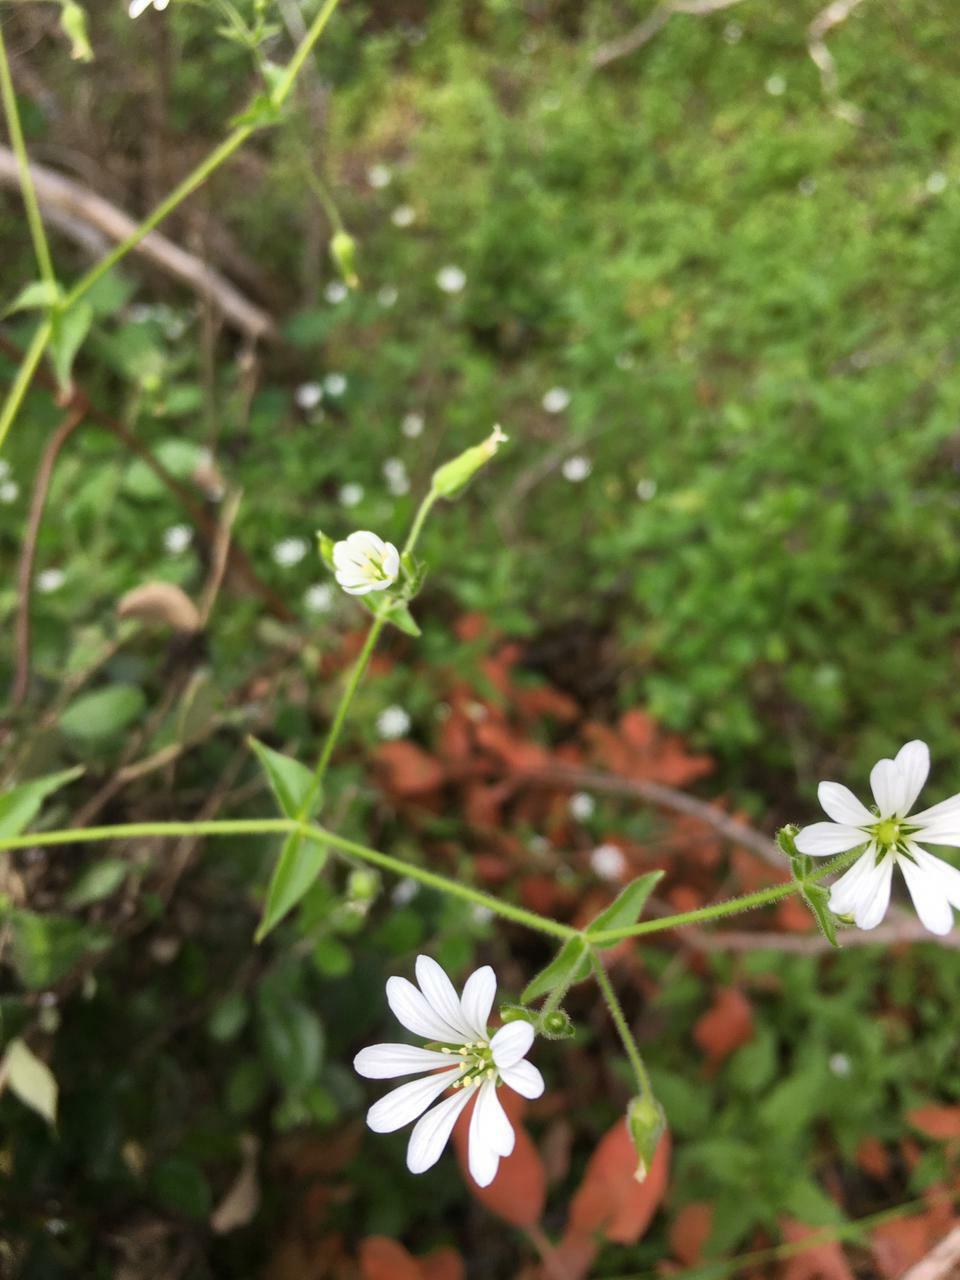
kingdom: Plantae
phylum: Tracheophyta
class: Magnoliopsida
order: Caryophyllales
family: Caryophyllaceae
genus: Stellaria
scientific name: Stellaria chilensis
